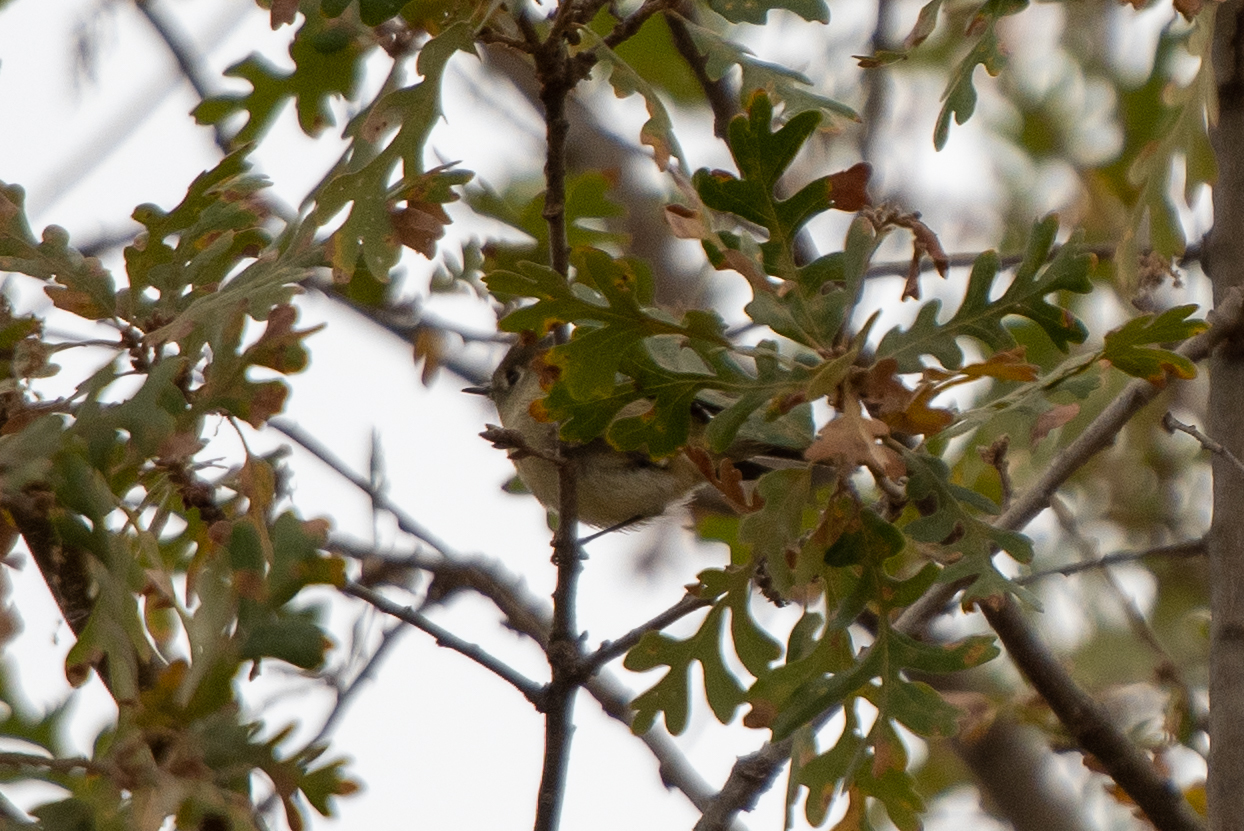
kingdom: Animalia
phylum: Chordata
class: Aves
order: Passeriformes
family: Regulidae
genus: Regulus
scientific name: Regulus calendula
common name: Ruby-crowned kinglet
